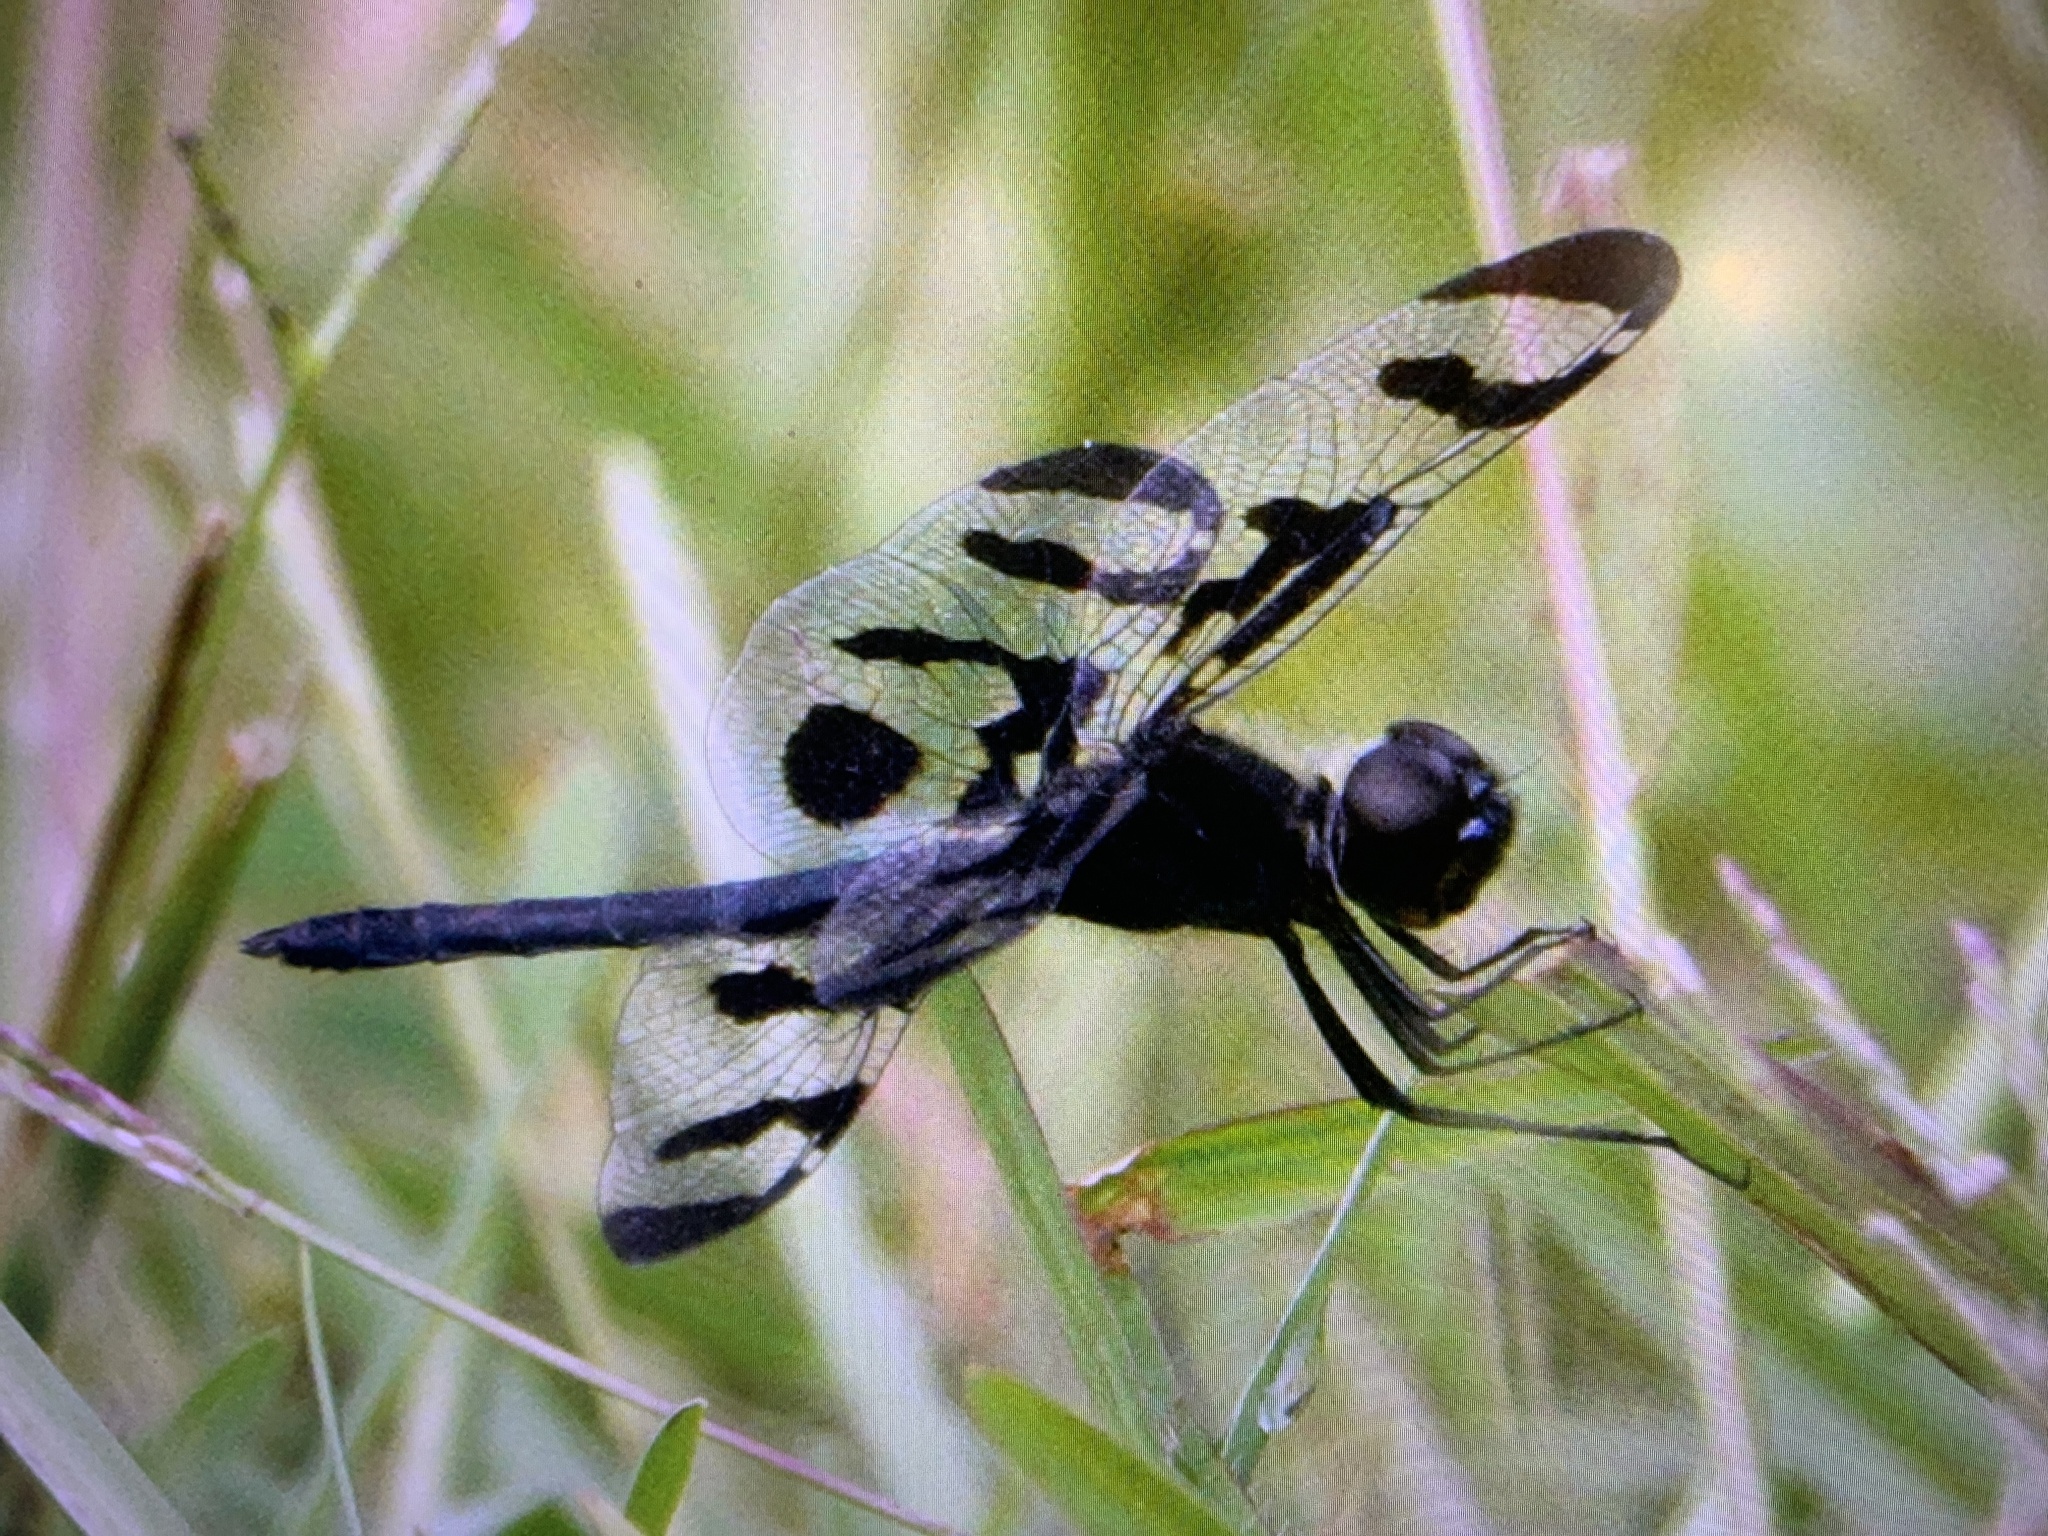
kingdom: Animalia
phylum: Arthropoda
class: Insecta
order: Odonata
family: Libellulidae
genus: Celithemis
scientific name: Celithemis fasciata
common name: Banded pennant
